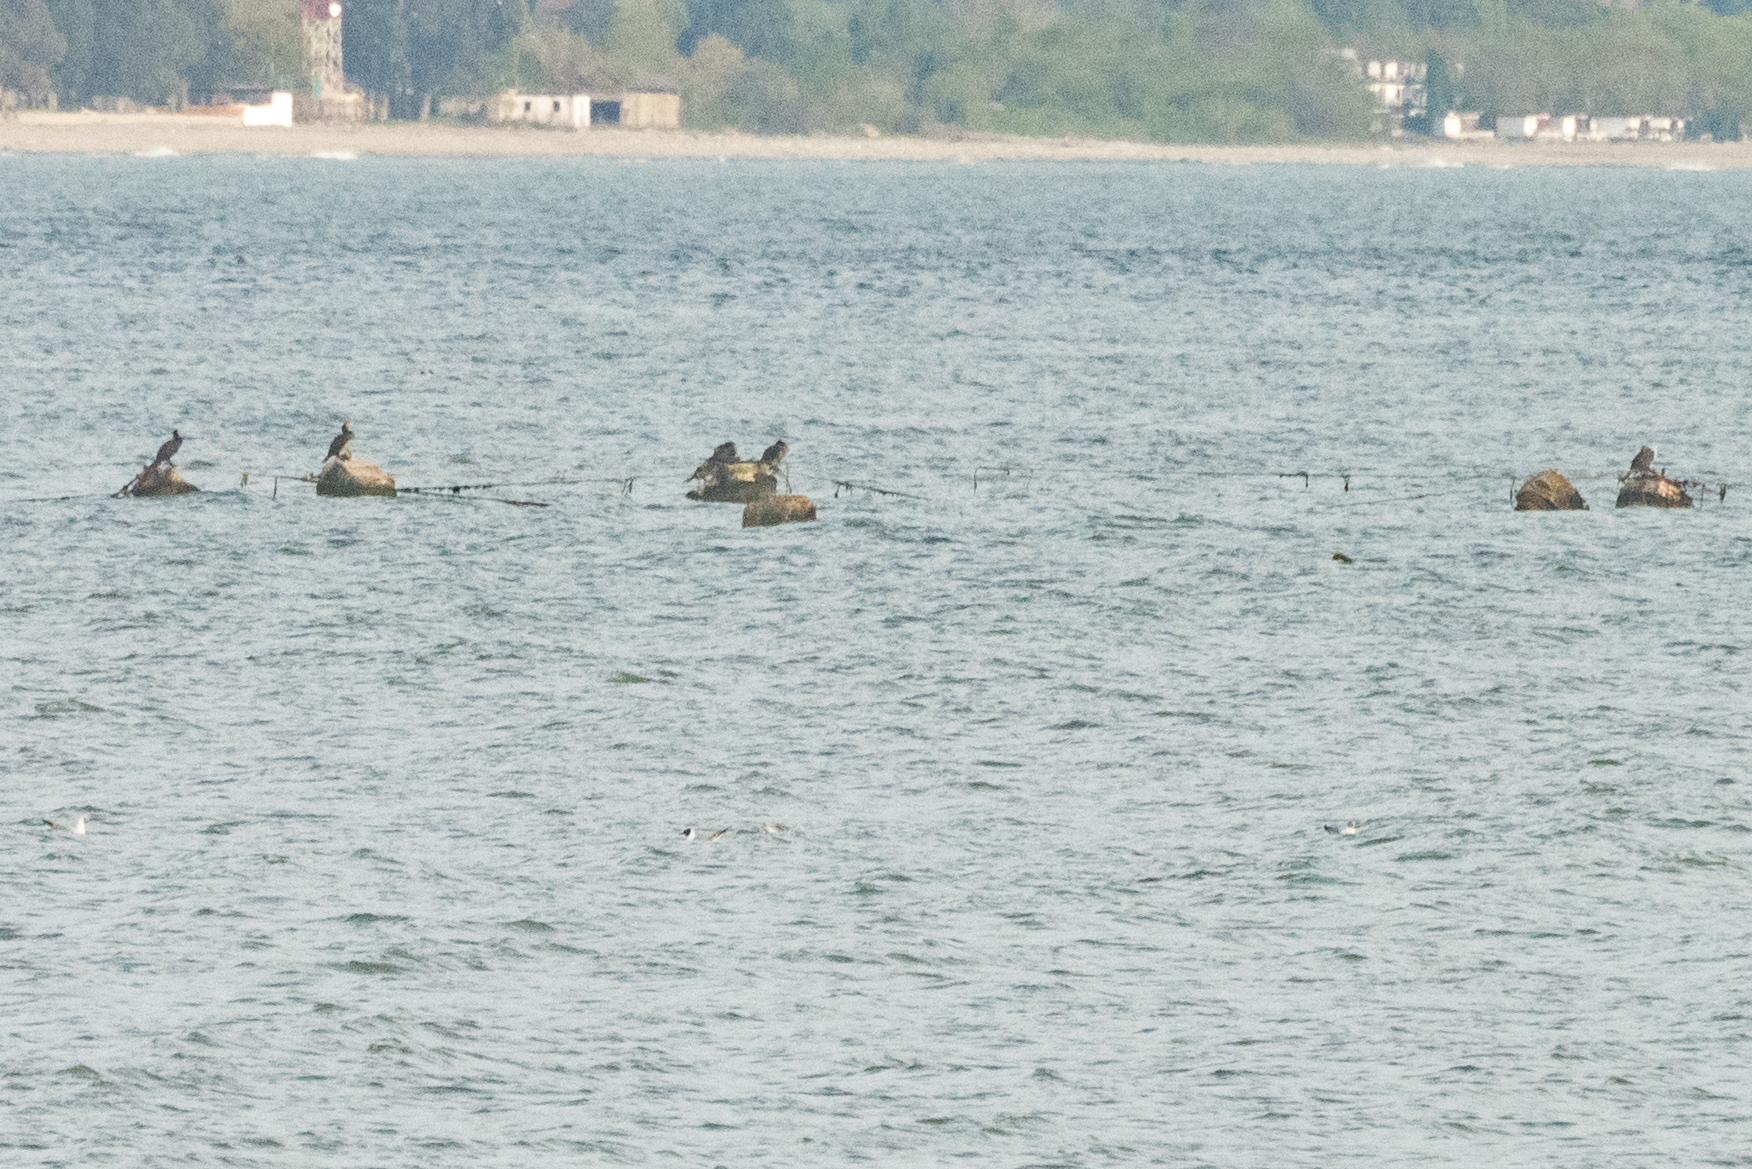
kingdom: Animalia
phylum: Chordata
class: Aves
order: Suliformes
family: Phalacrocoracidae
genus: Phalacrocorax
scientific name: Phalacrocorax carbo
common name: Great cormorant
